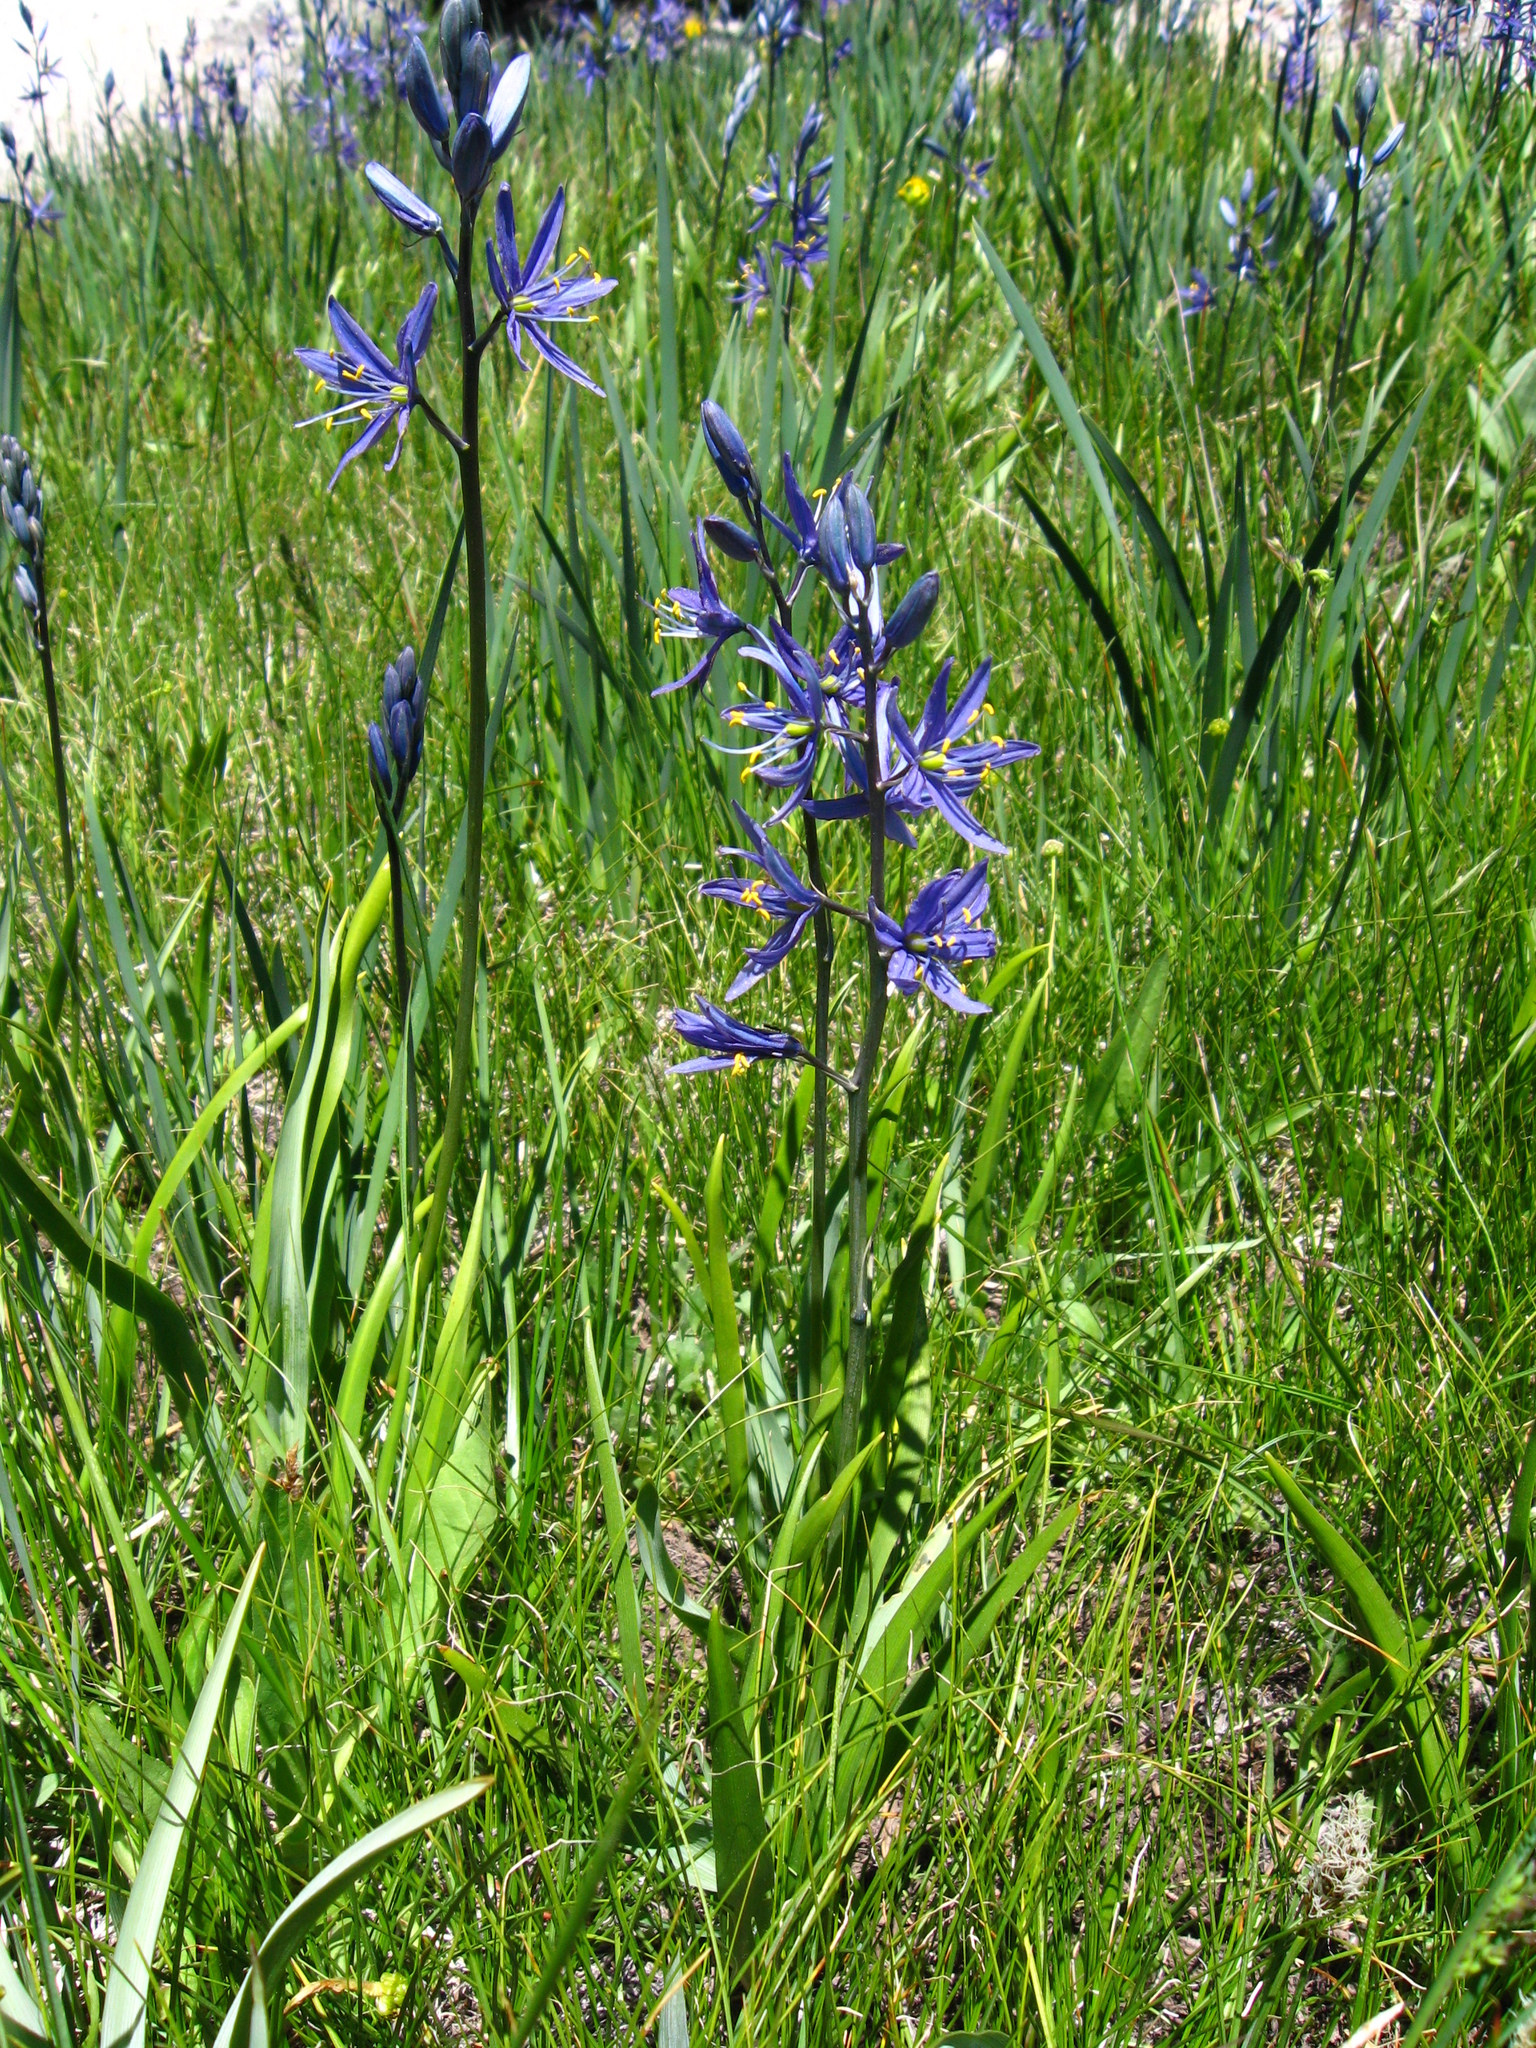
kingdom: Plantae
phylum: Tracheophyta
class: Liliopsida
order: Asparagales
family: Asparagaceae
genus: Camassia
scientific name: Camassia quamash
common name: Common camas
